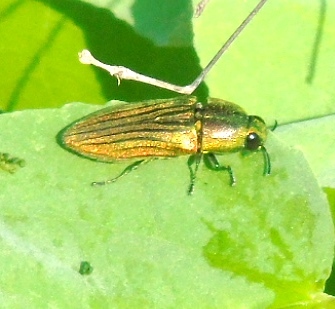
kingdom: Animalia
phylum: Arthropoda
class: Insecta
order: Coleoptera
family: Buprestidae
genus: Agaeocera
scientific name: Agaeocera scintillans
